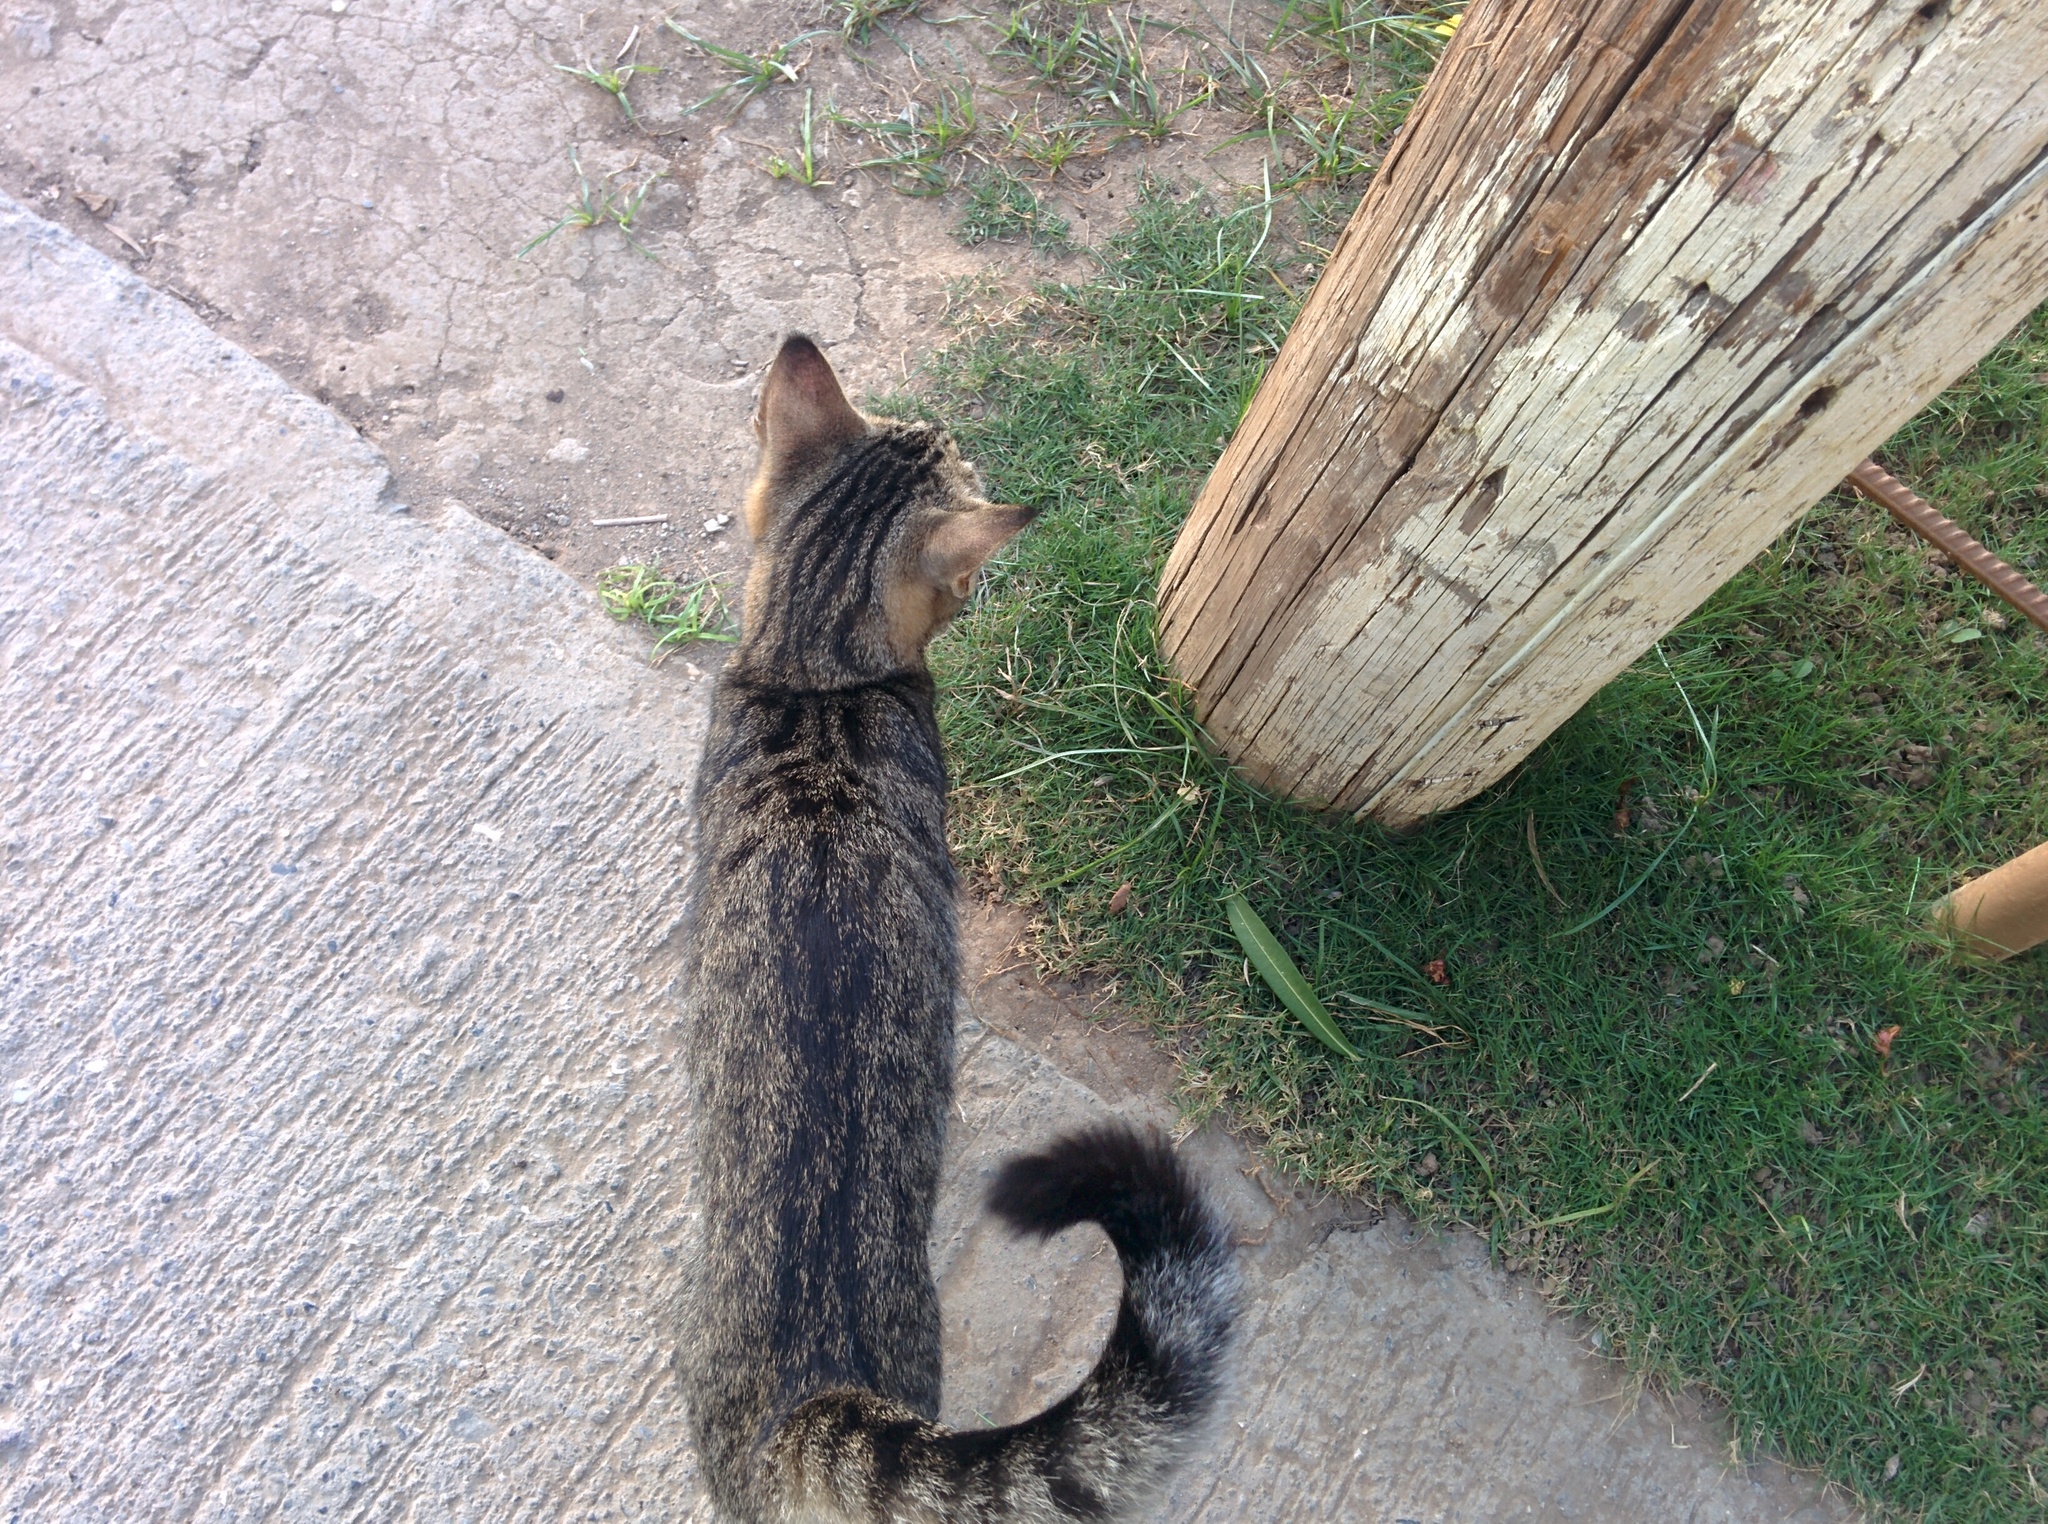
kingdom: Animalia
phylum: Chordata
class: Mammalia
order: Carnivora
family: Felidae
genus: Felis
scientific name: Felis catus
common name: Domestic cat
